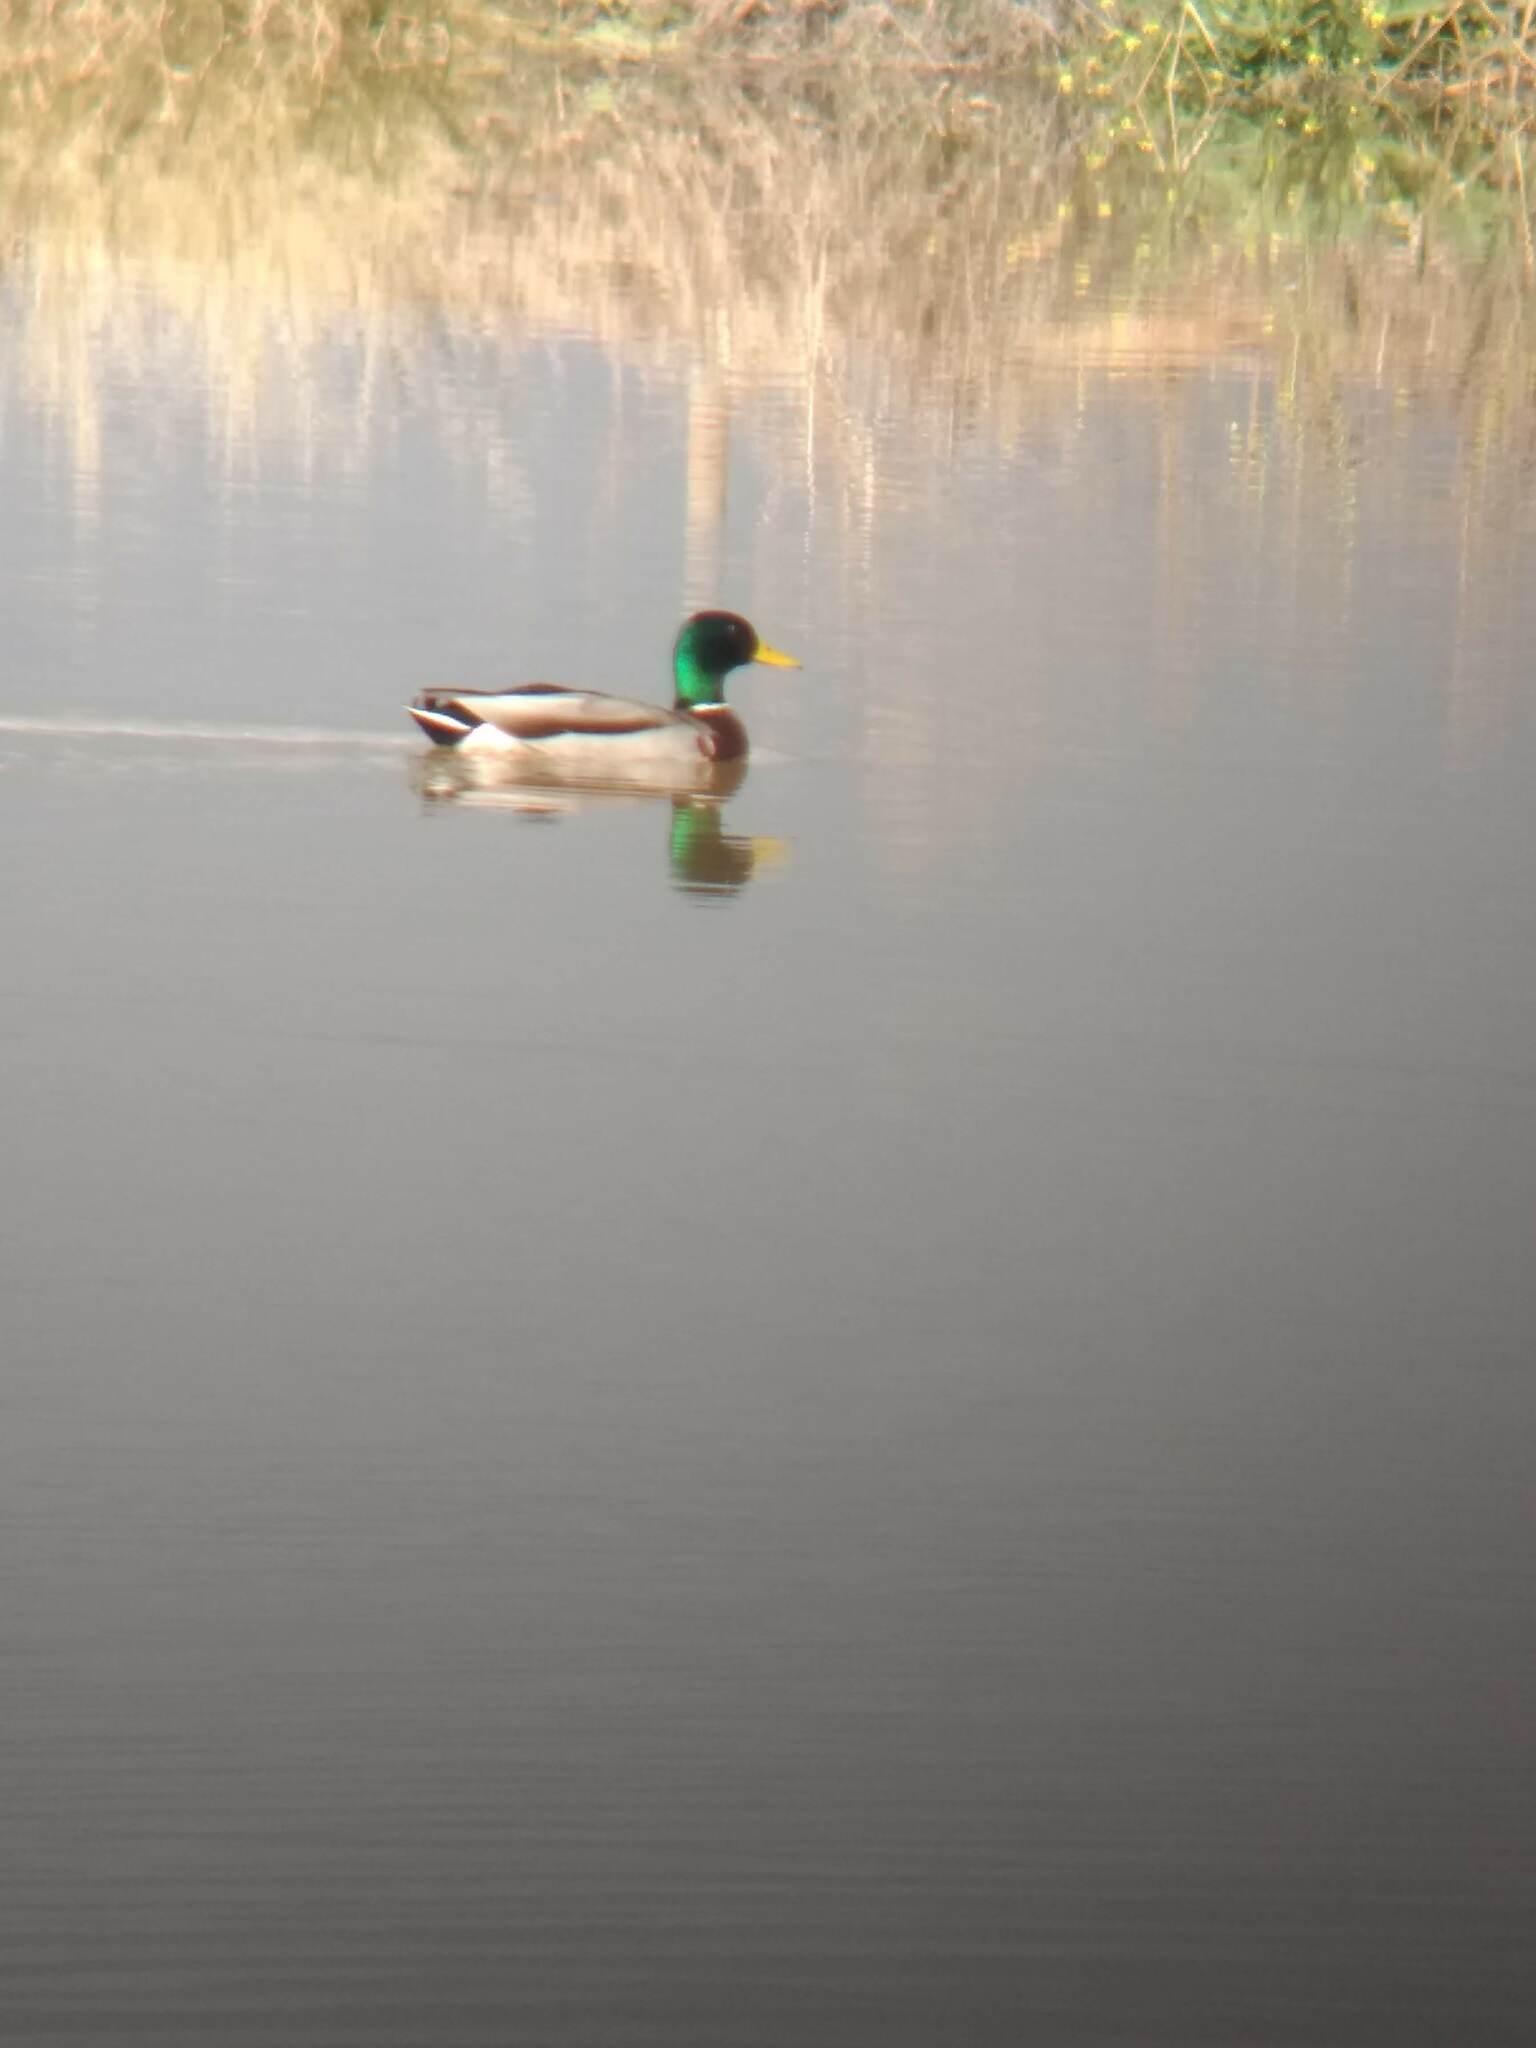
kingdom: Animalia
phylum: Chordata
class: Aves
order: Anseriformes
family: Anatidae
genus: Anas
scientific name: Anas platyrhynchos
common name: Mallard
